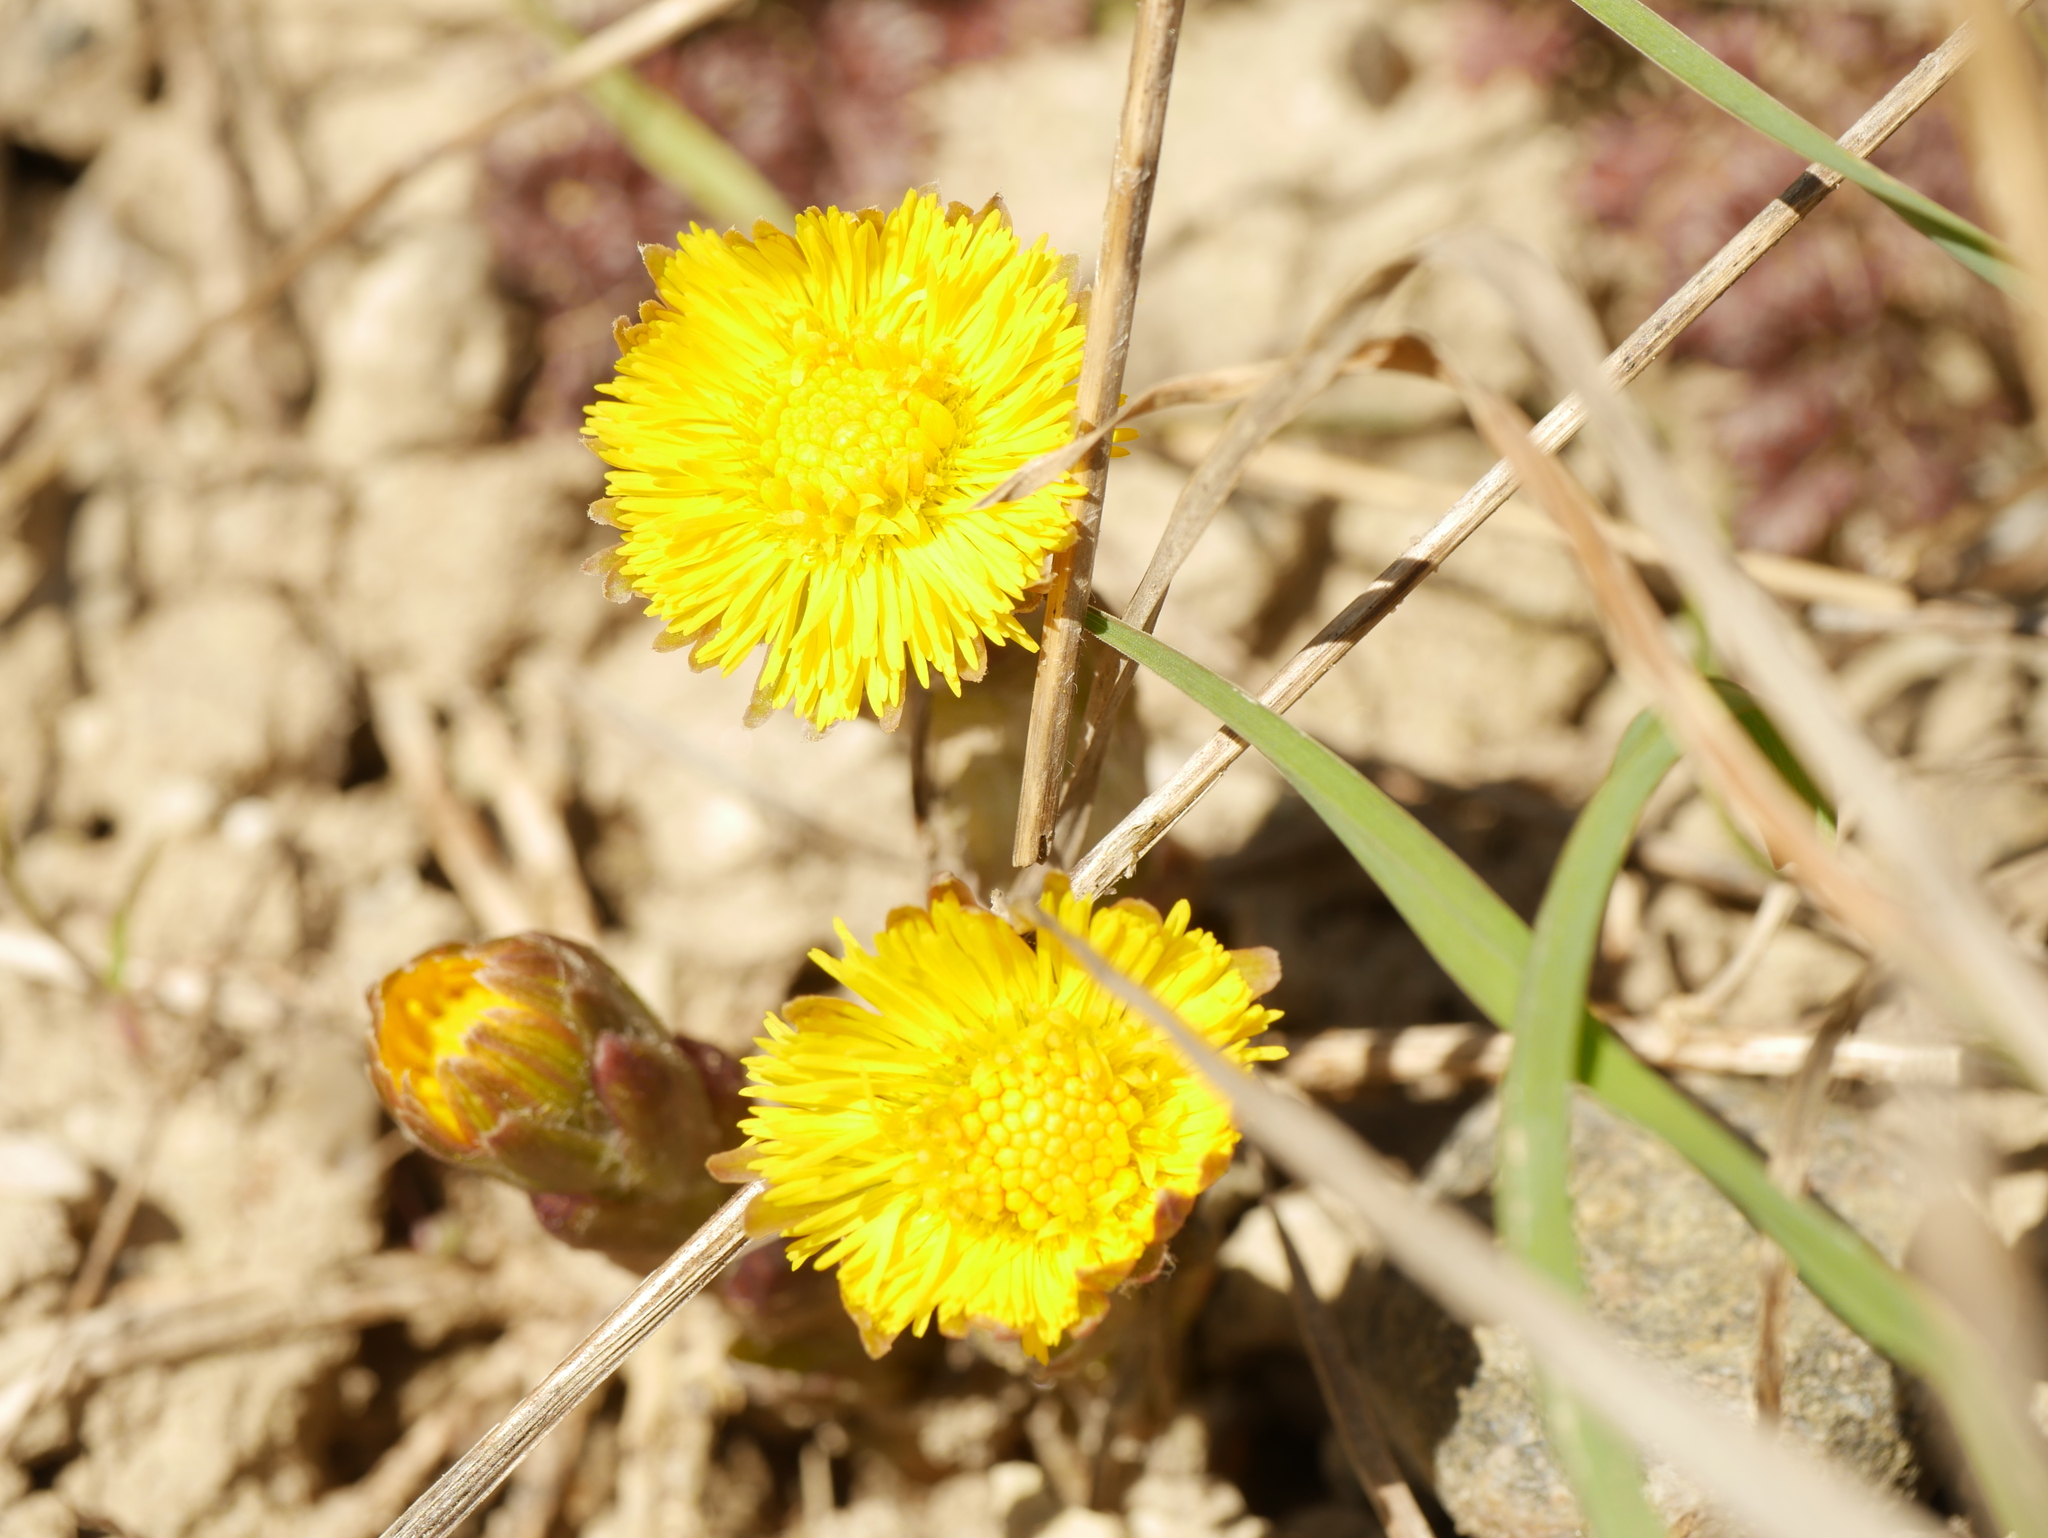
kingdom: Plantae
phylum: Tracheophyta
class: Magnoliopsida
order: Asterales
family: Asteraceae
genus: Tussilago
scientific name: Tussilago farfara
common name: Coltsfoot
